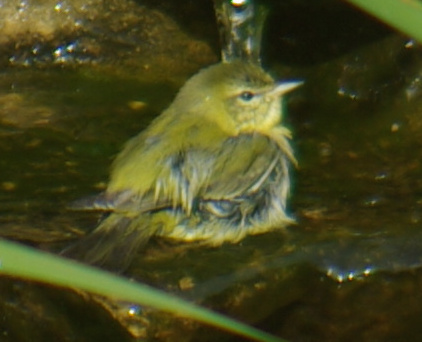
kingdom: Animalia
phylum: Chordata
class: Aves
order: Passeriformes
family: Parulidae
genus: Leiothlypis
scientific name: Leiothlypis peregrina
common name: Tennessee warbler
